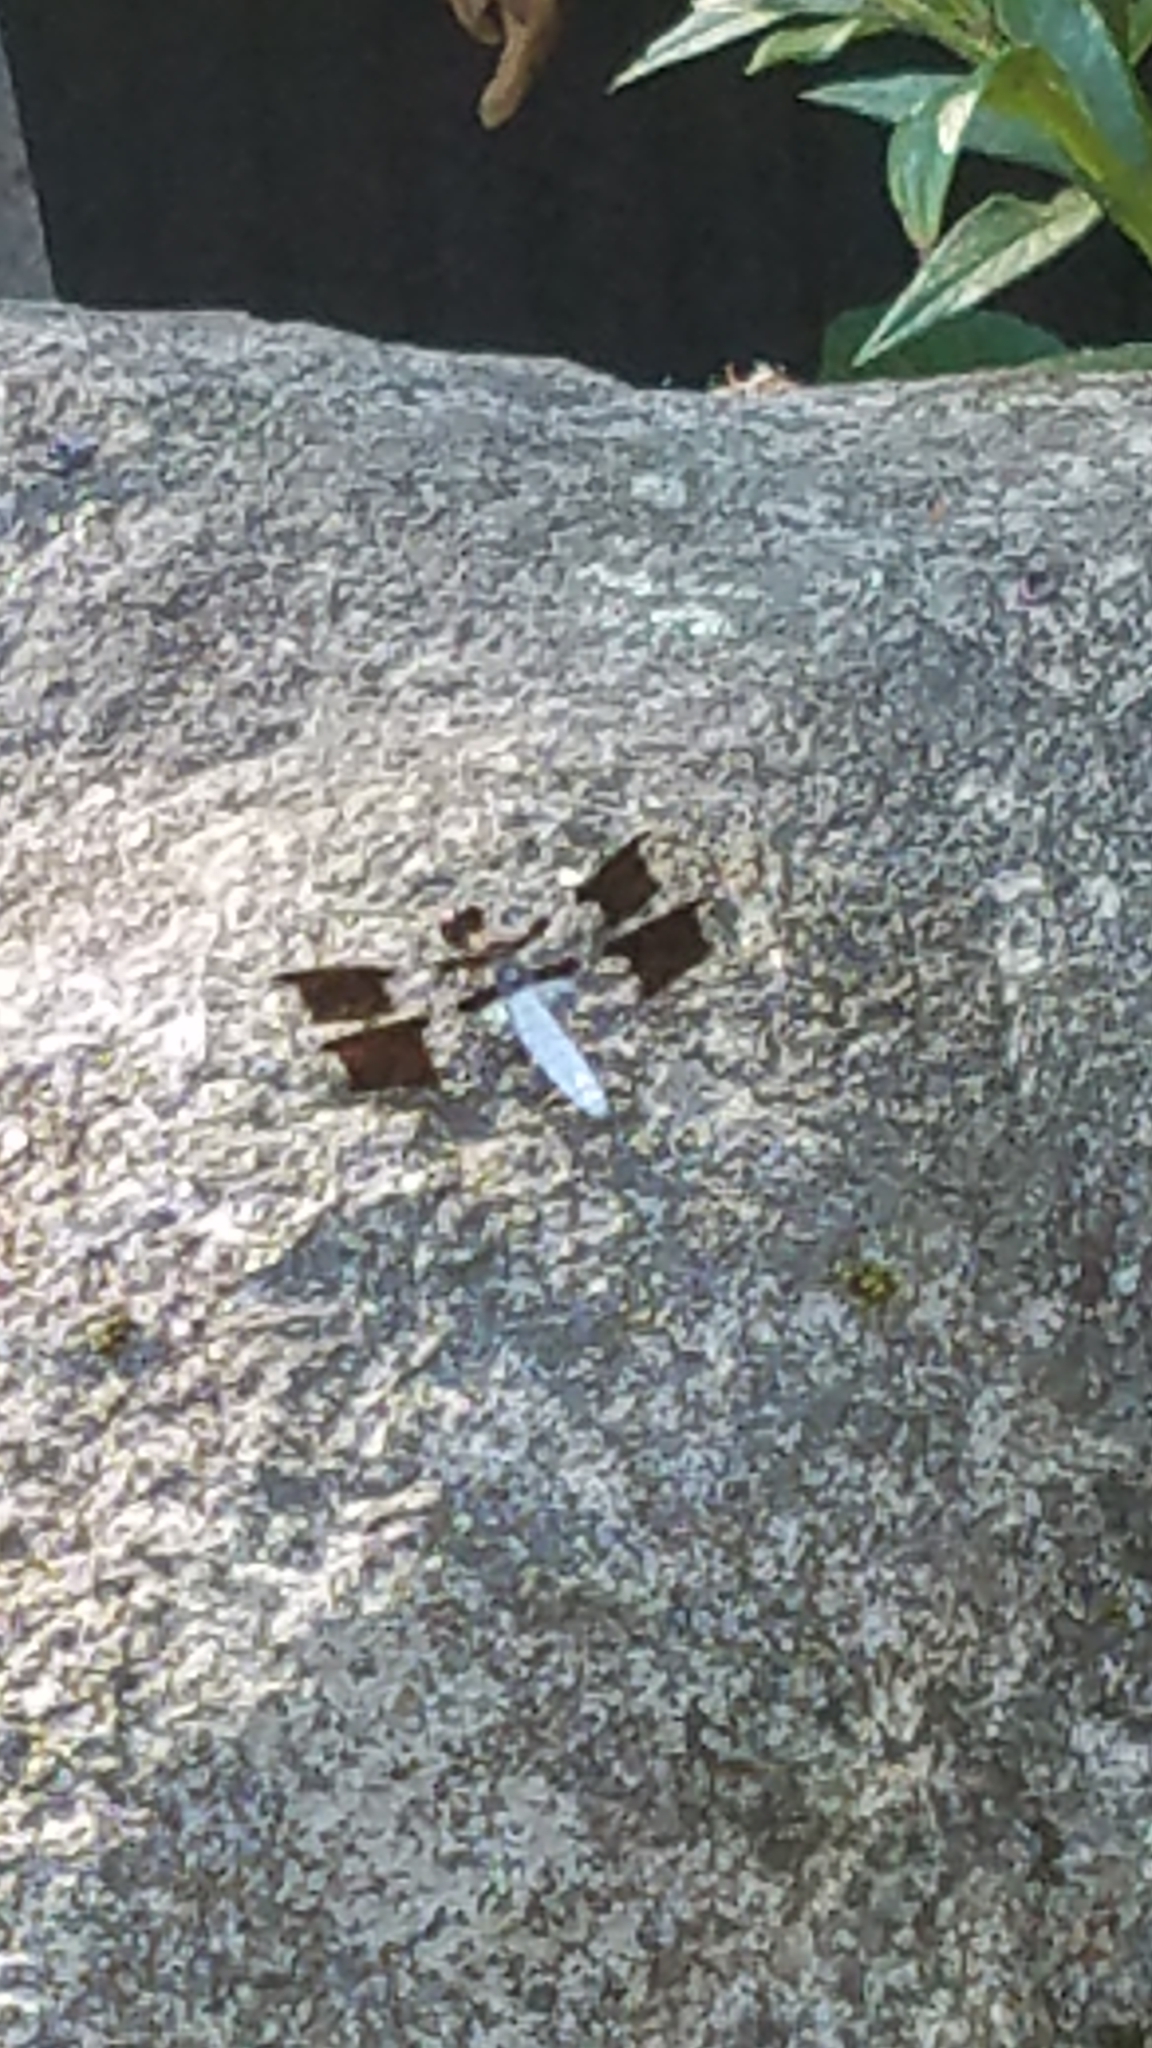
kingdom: Animalia
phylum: Arthropoda
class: Insecta
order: Odonata
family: Libellulidae
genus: Plathemis
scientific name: Plathemis lydia
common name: Common whitetail
